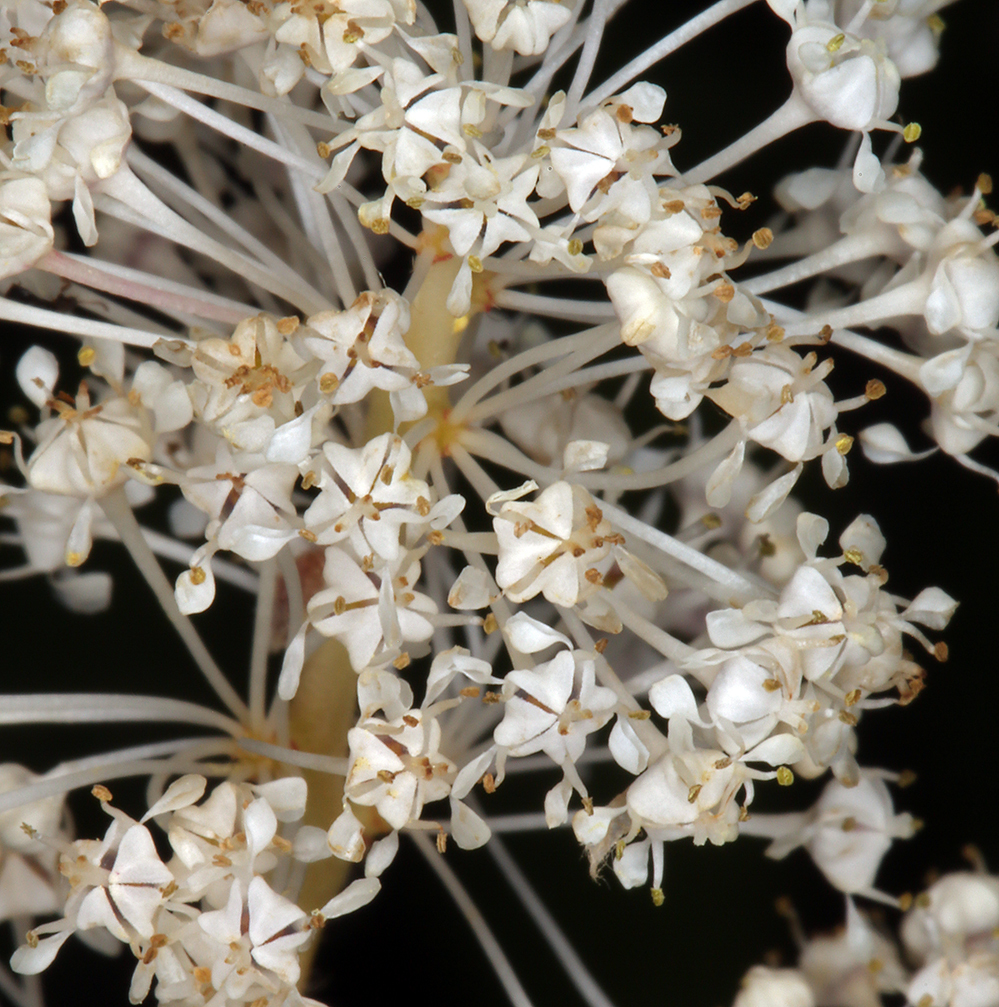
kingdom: Plantae
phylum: Tracheophyta
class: Magnoliopsida
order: Rosales
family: Rhamnaceae
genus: Ceanothus
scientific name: Ceanothus sanguineus
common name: Teatree
